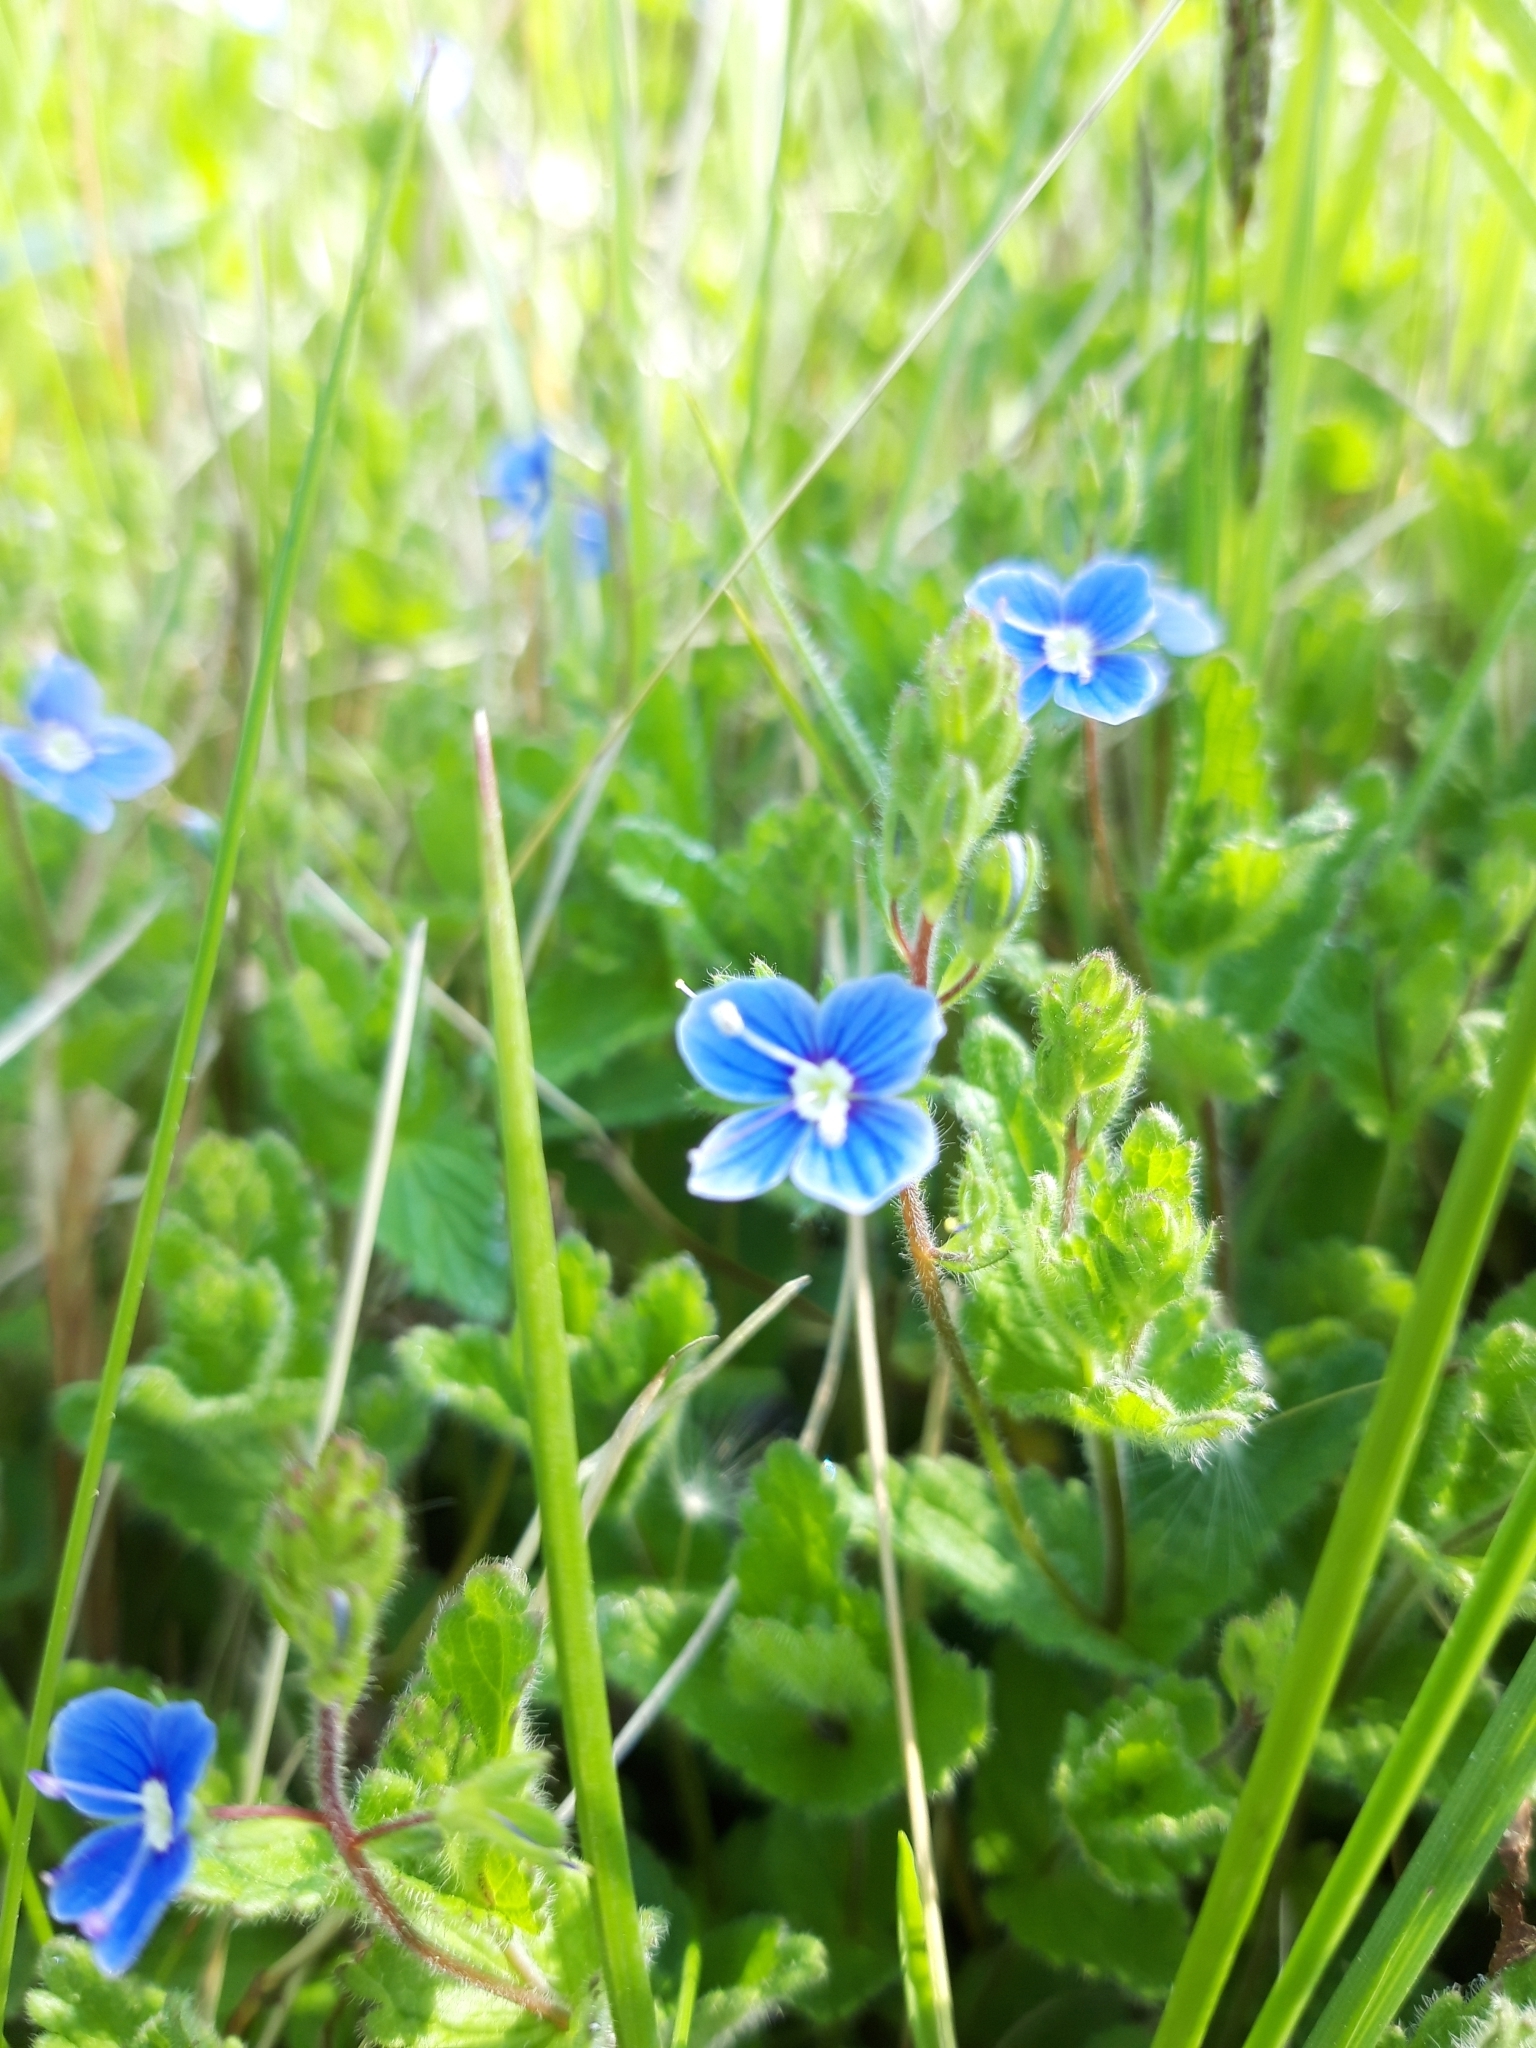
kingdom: Plantae
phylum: Tracheophyta
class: Magnoliopsida
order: Lamiales
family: Plantaginaceae
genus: Veronica
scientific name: Veronica chamaedrys
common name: Germander speedwell
